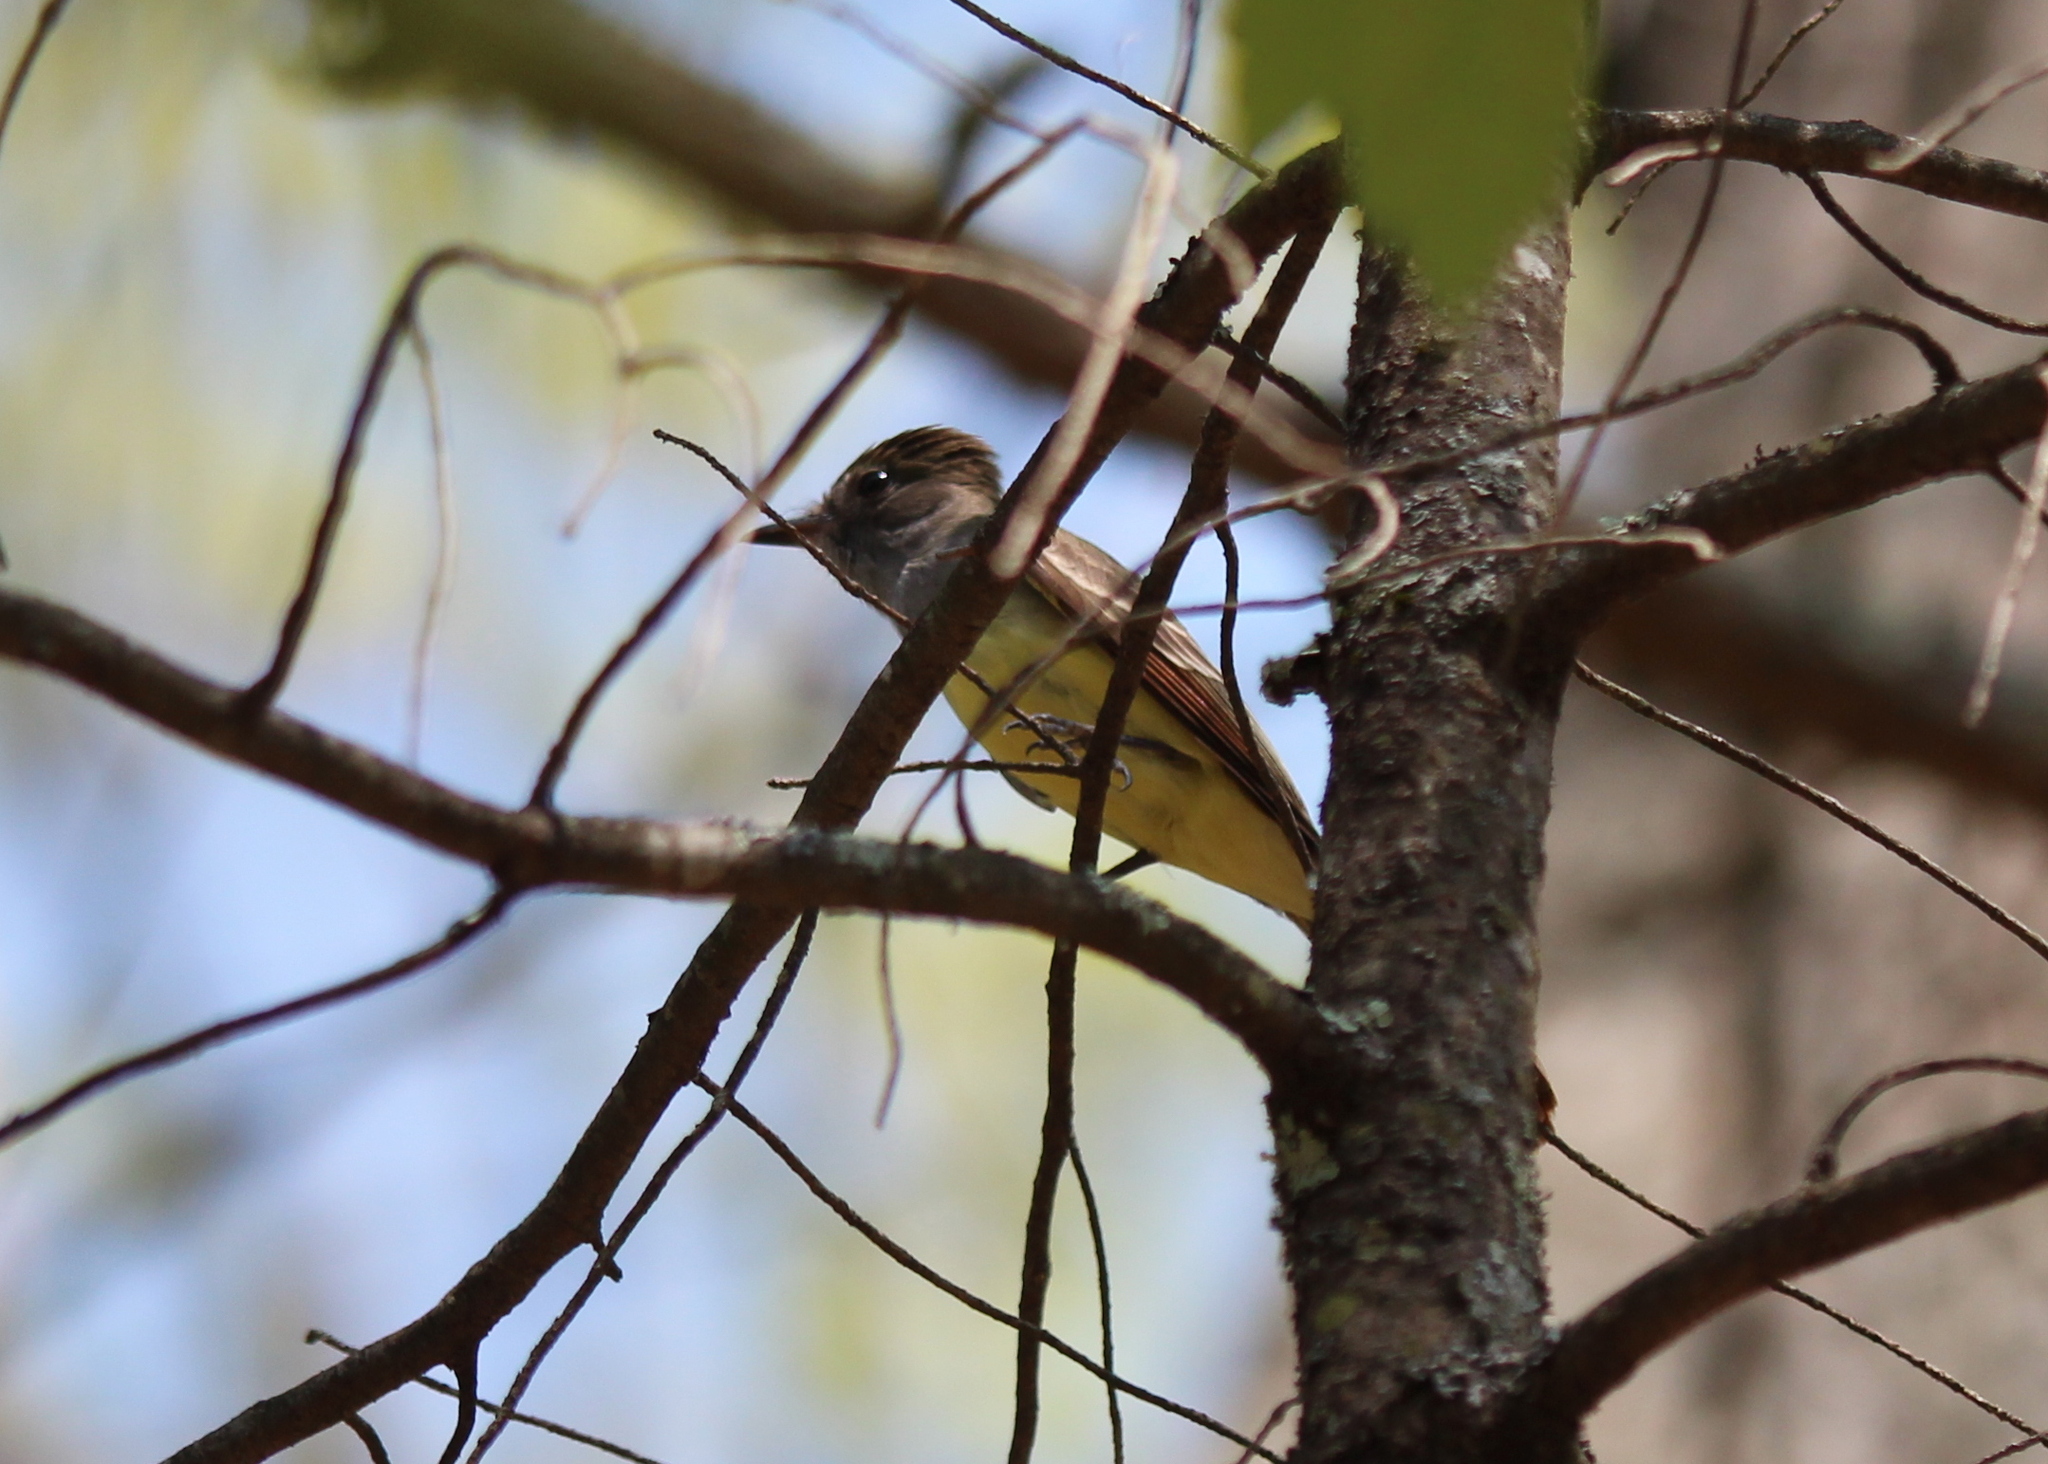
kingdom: Animalia
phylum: Chordata
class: Aves
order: Passeriformes
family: Tyrannidae
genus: Myiarchus
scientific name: Myiarchus crinitus
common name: Great crested flycatcher
